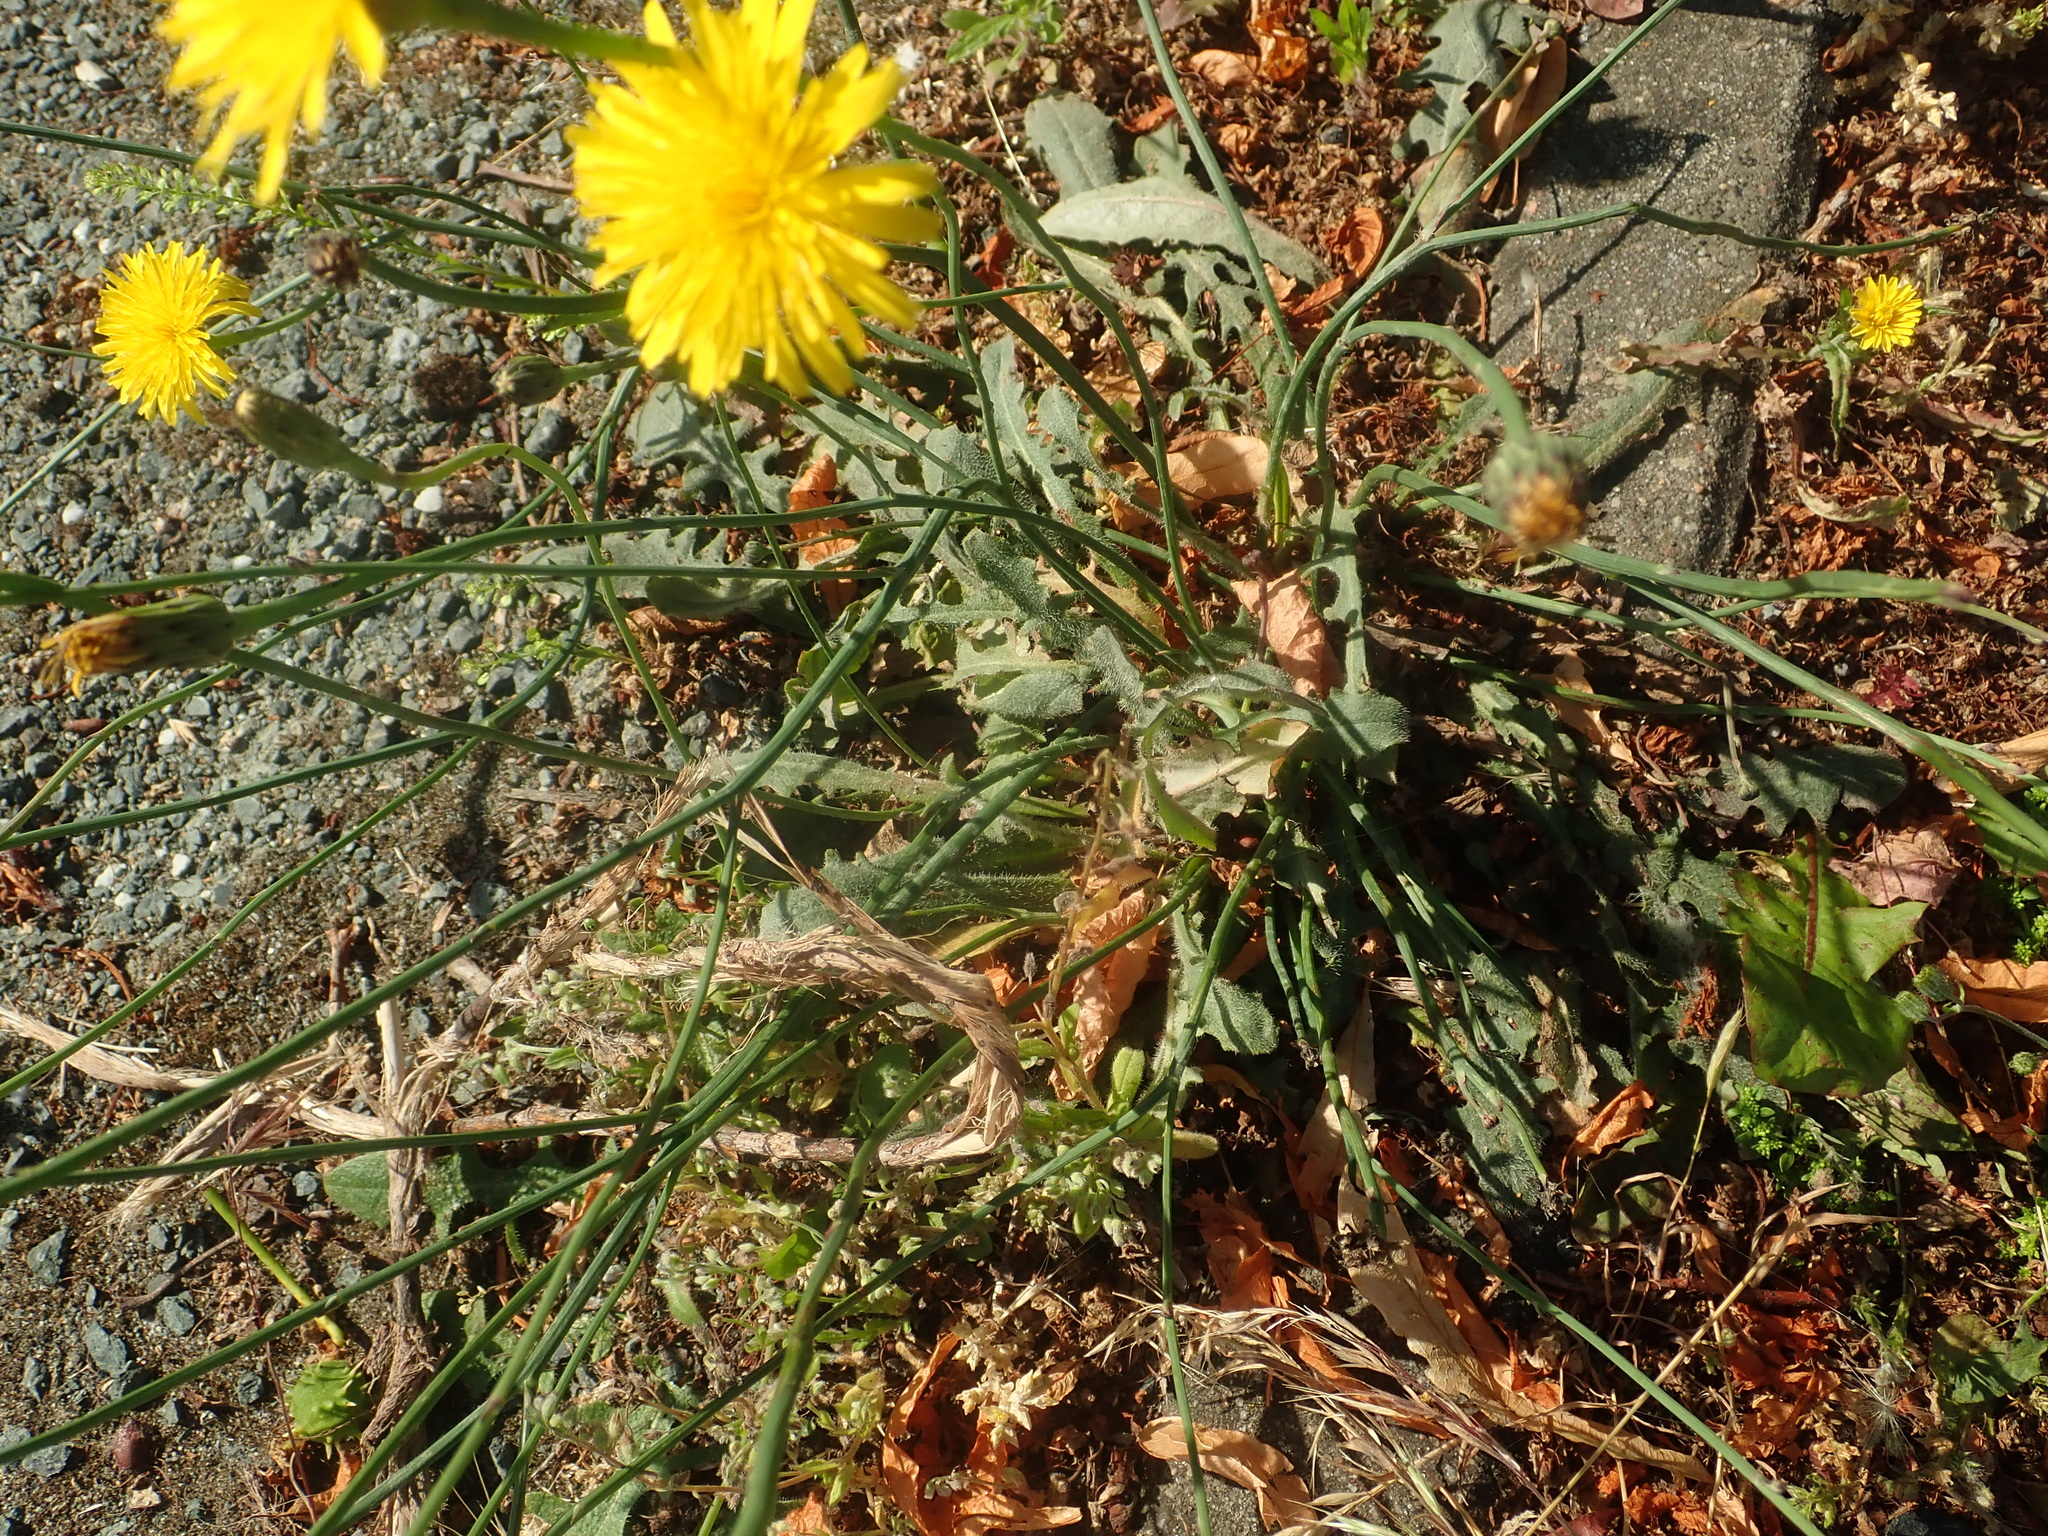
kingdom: Plantae
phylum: Tracheophyta
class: Magnoliopsida
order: Asterales
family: Asteraceae
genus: Hypochaeris
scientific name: Hypochaeris radicata
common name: Flatweed
